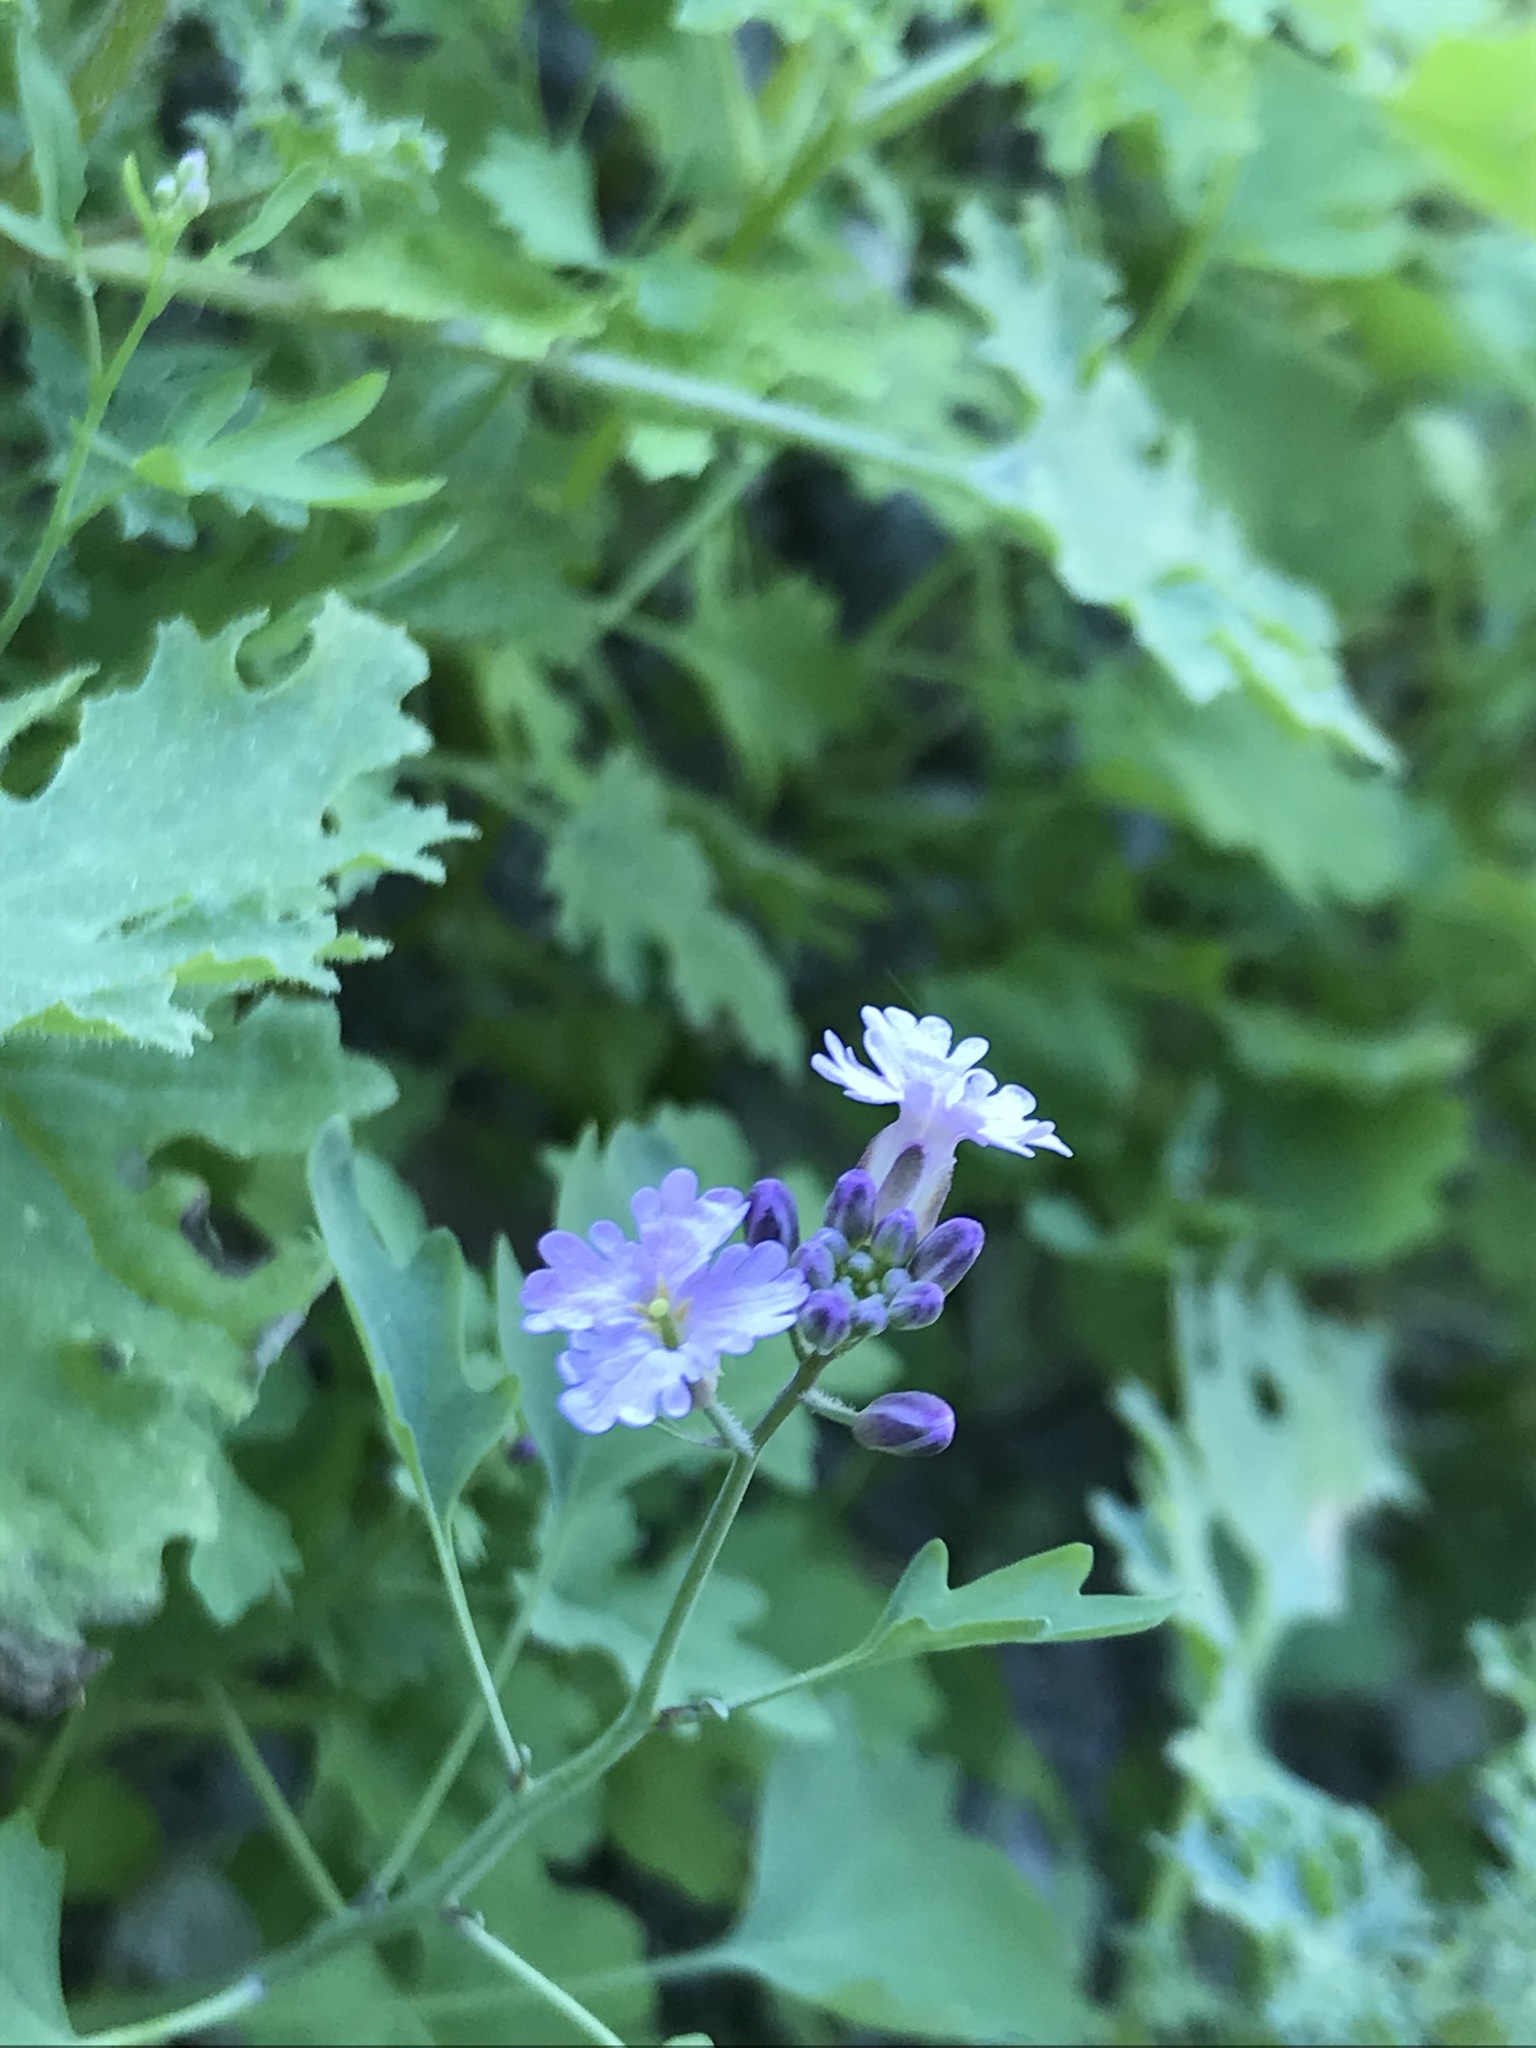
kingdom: Plantae
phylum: Tracheophyta
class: Magnoliopsida
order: Brassicales
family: Brassicaceae
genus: Dryopetalon
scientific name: Dryopetalon palmeri
